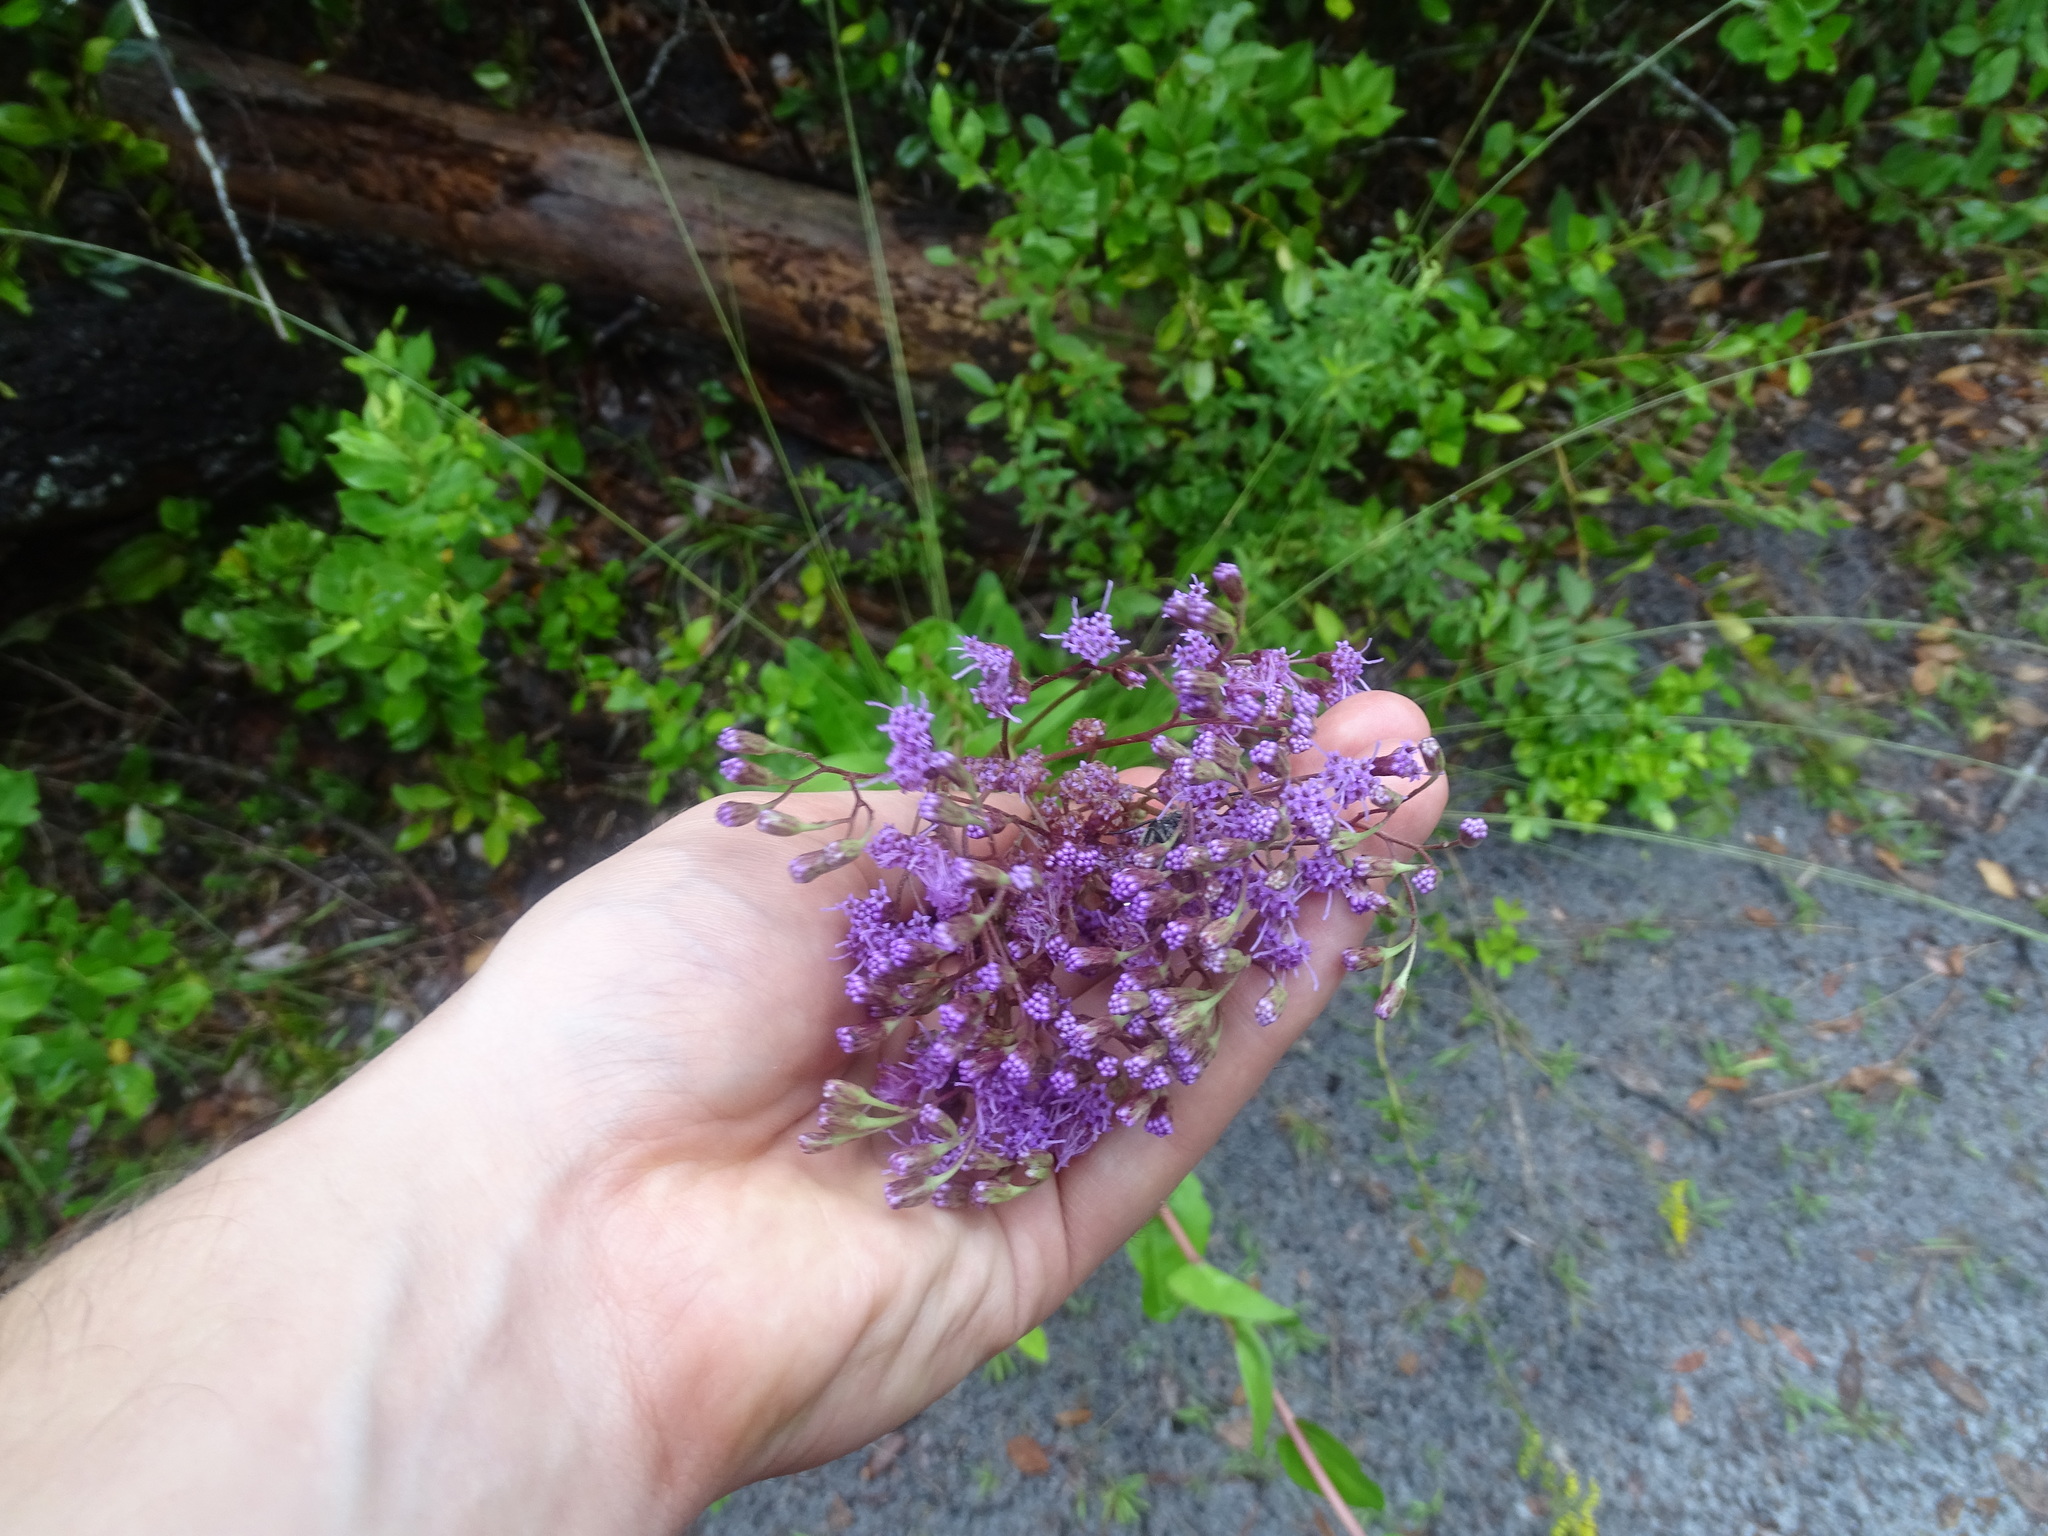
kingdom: Plantae
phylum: Tracheophyta
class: Magnoliopsida
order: Asterales
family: Asteraceae
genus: Carphephorus
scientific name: Carphephorus odoratissimus
